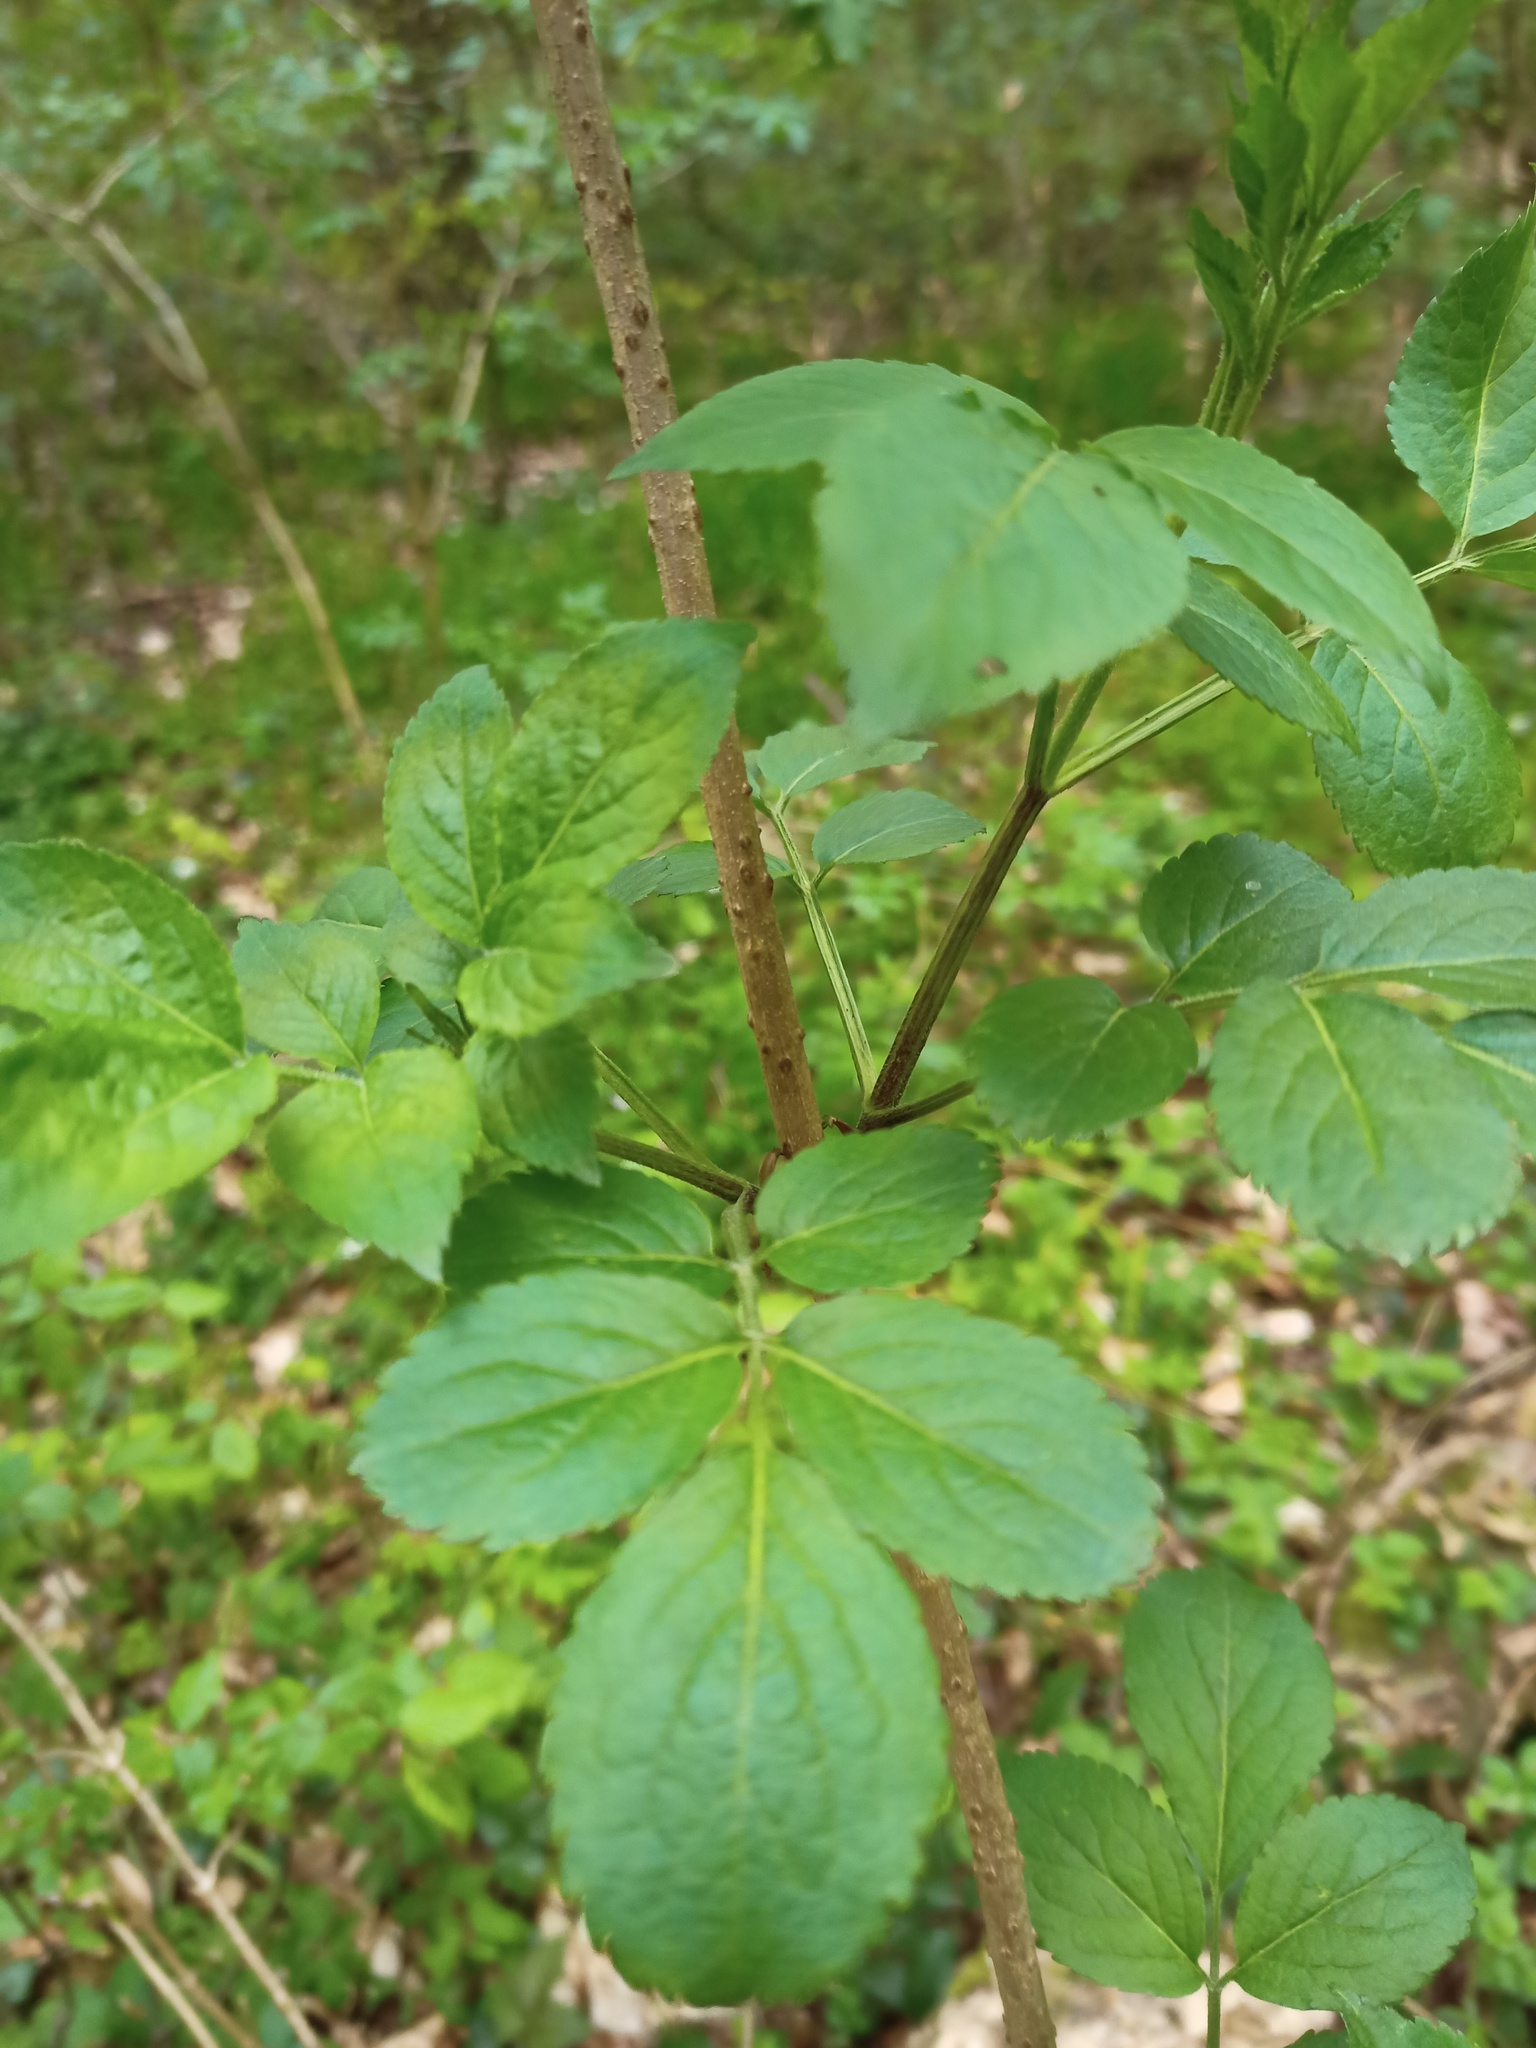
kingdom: Plantae
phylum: Tracheophyta
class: Magnoliopsida
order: Dipsacales
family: Viburnaceae
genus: Sambucus
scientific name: Sambucus nigra
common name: Elder
